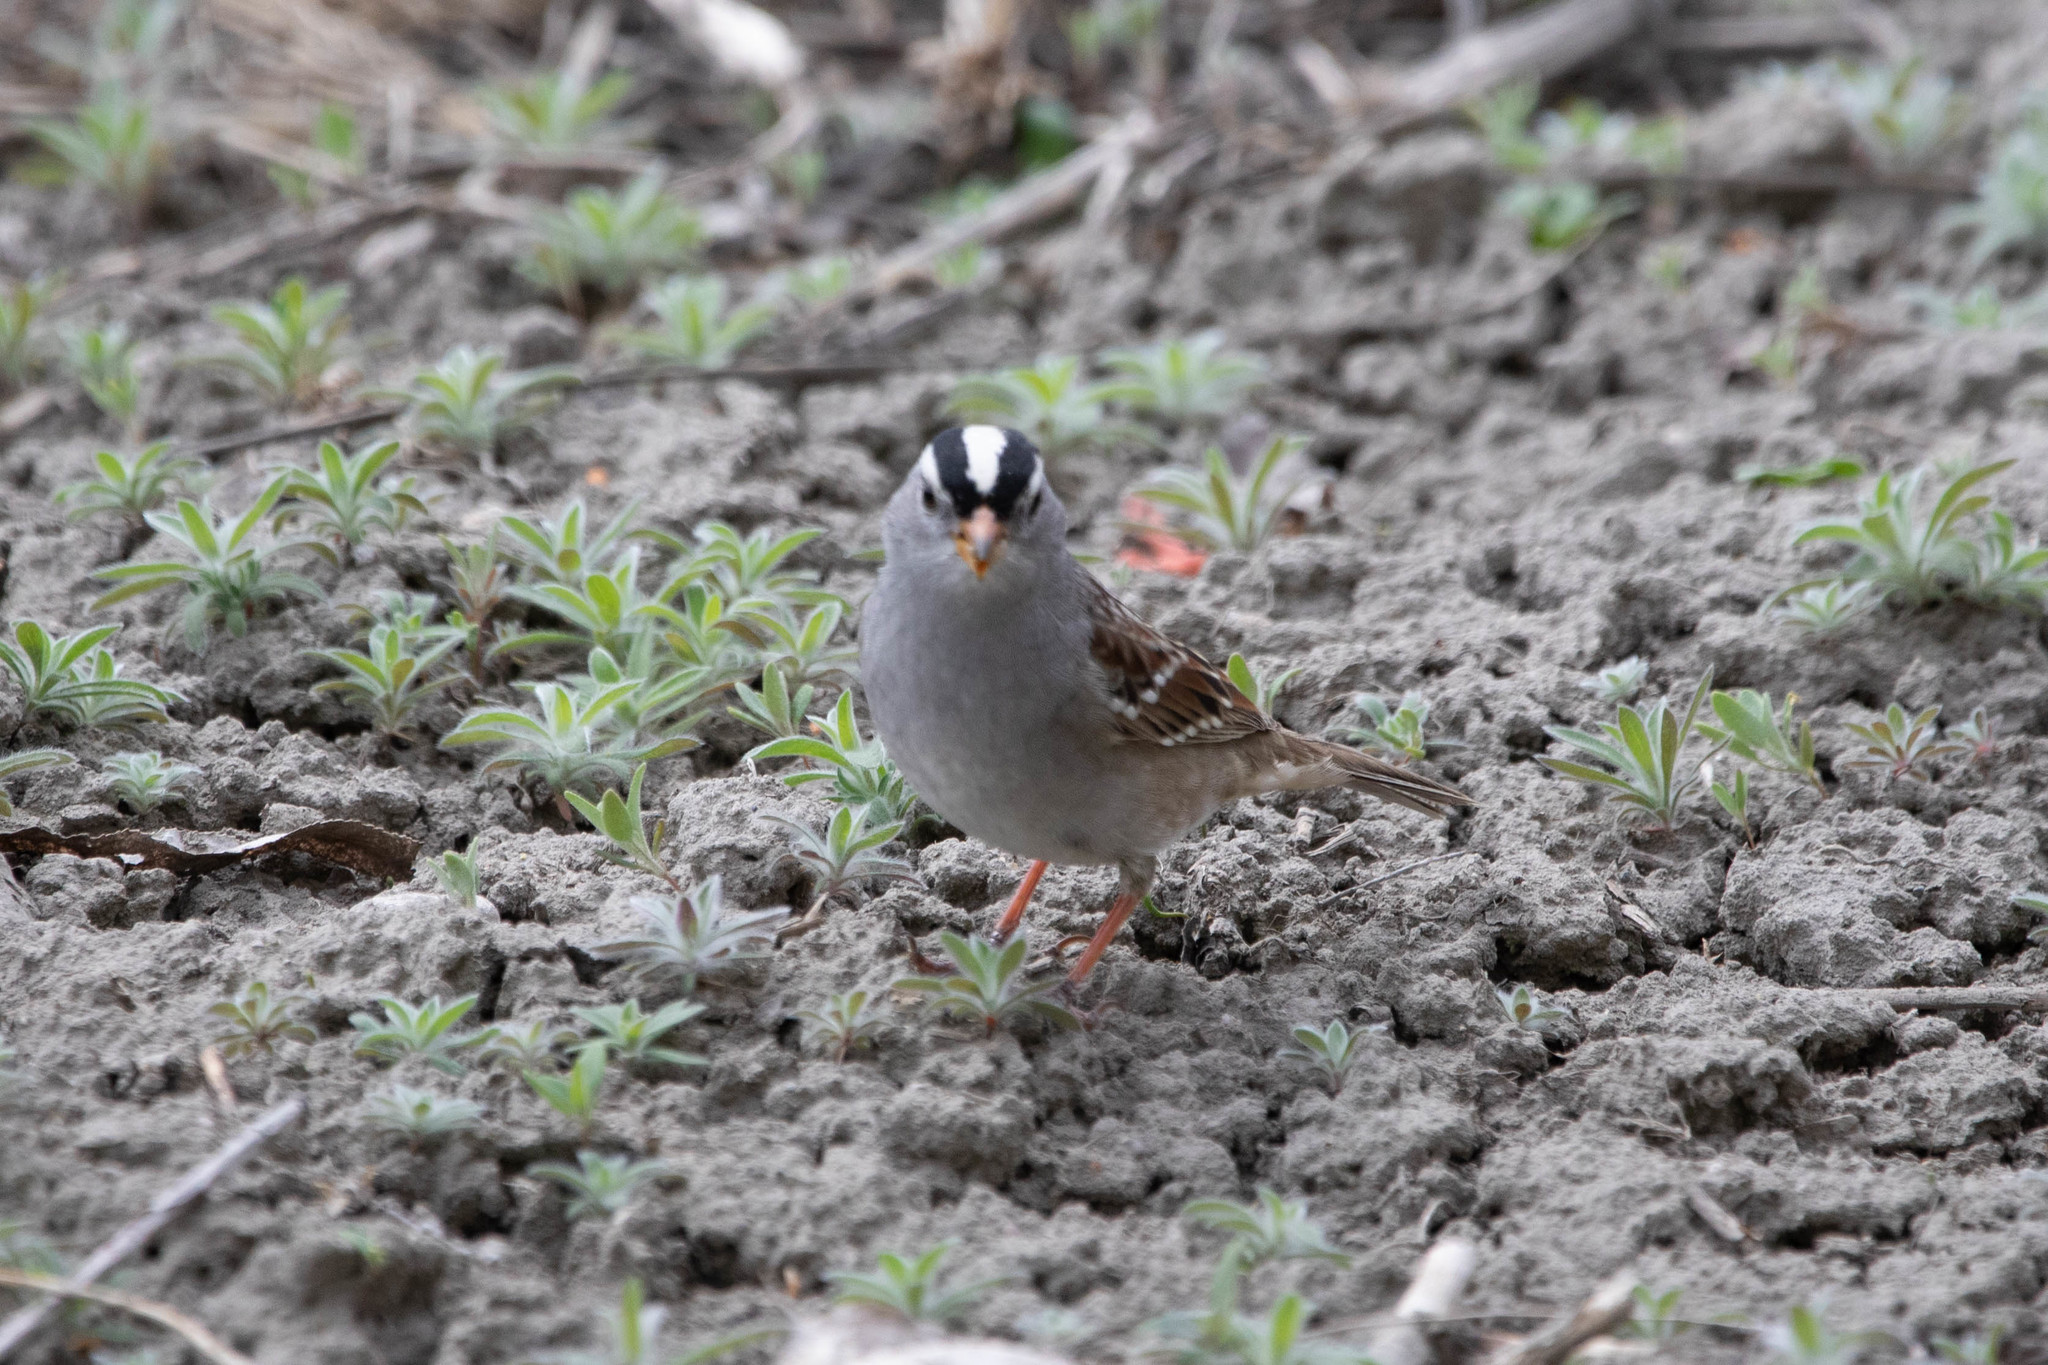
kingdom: Animalia
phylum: Chordata
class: Aves
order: Passeriformes
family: Passerellidae
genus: Zonotrichia
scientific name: Zonotrichia leucophrys
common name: White-crowned sparrow
